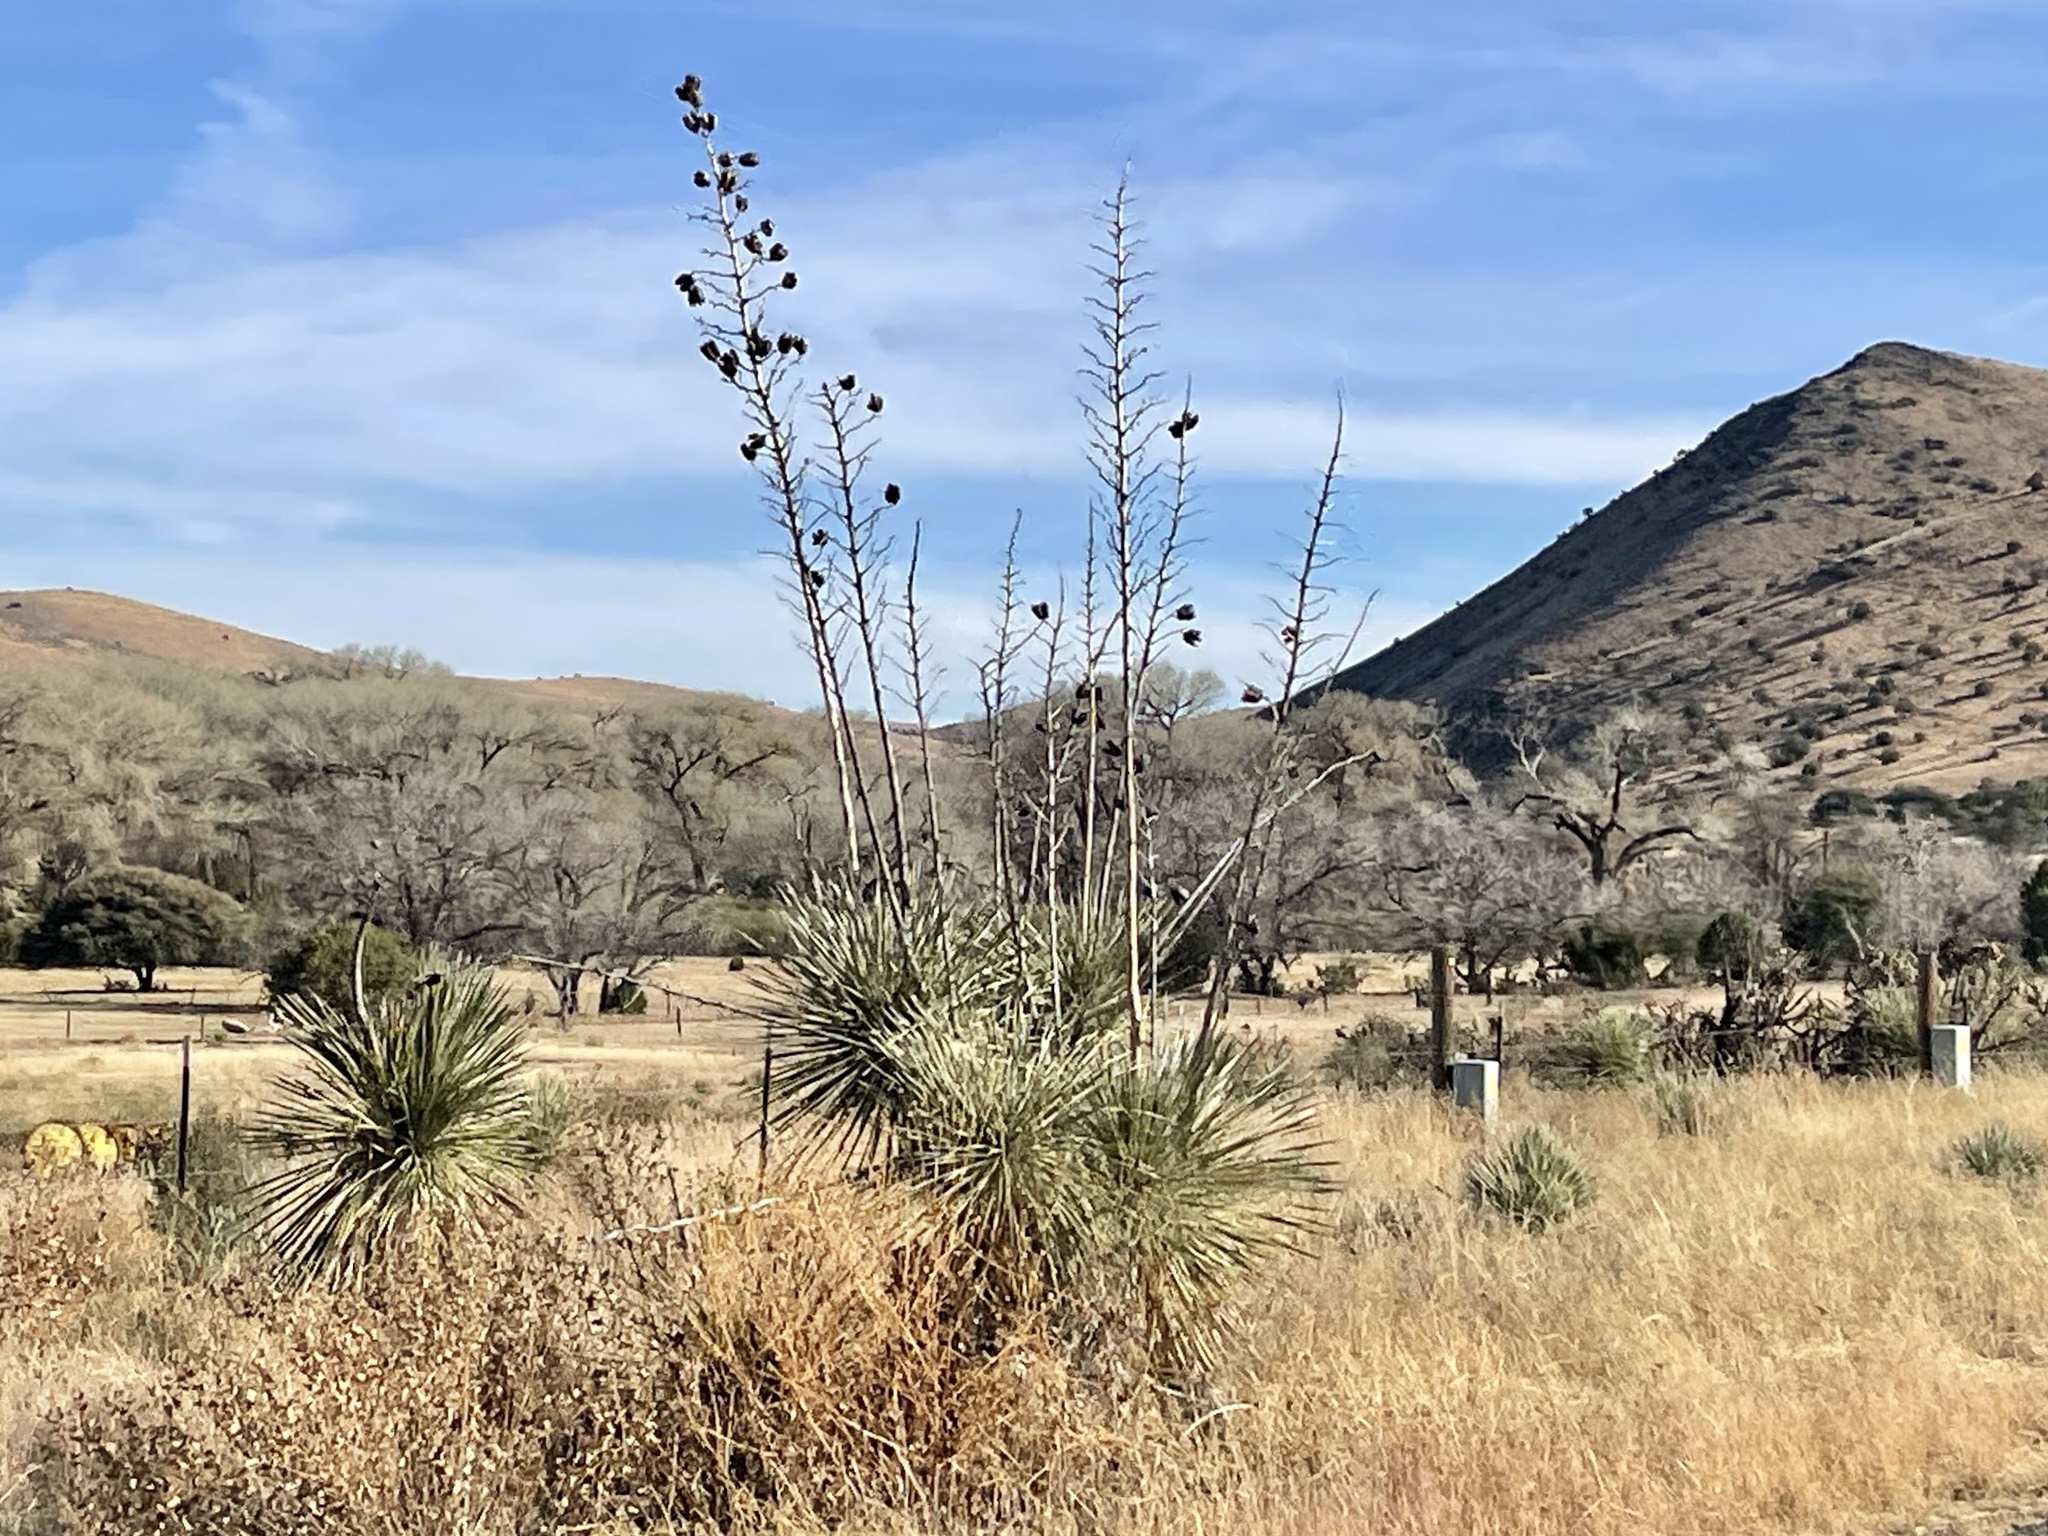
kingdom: Plantae
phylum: Tracheophyta
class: Liliopsida
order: Asparagales
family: Asparagaceae
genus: Yucca
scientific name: Yucca elata
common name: Palmella
